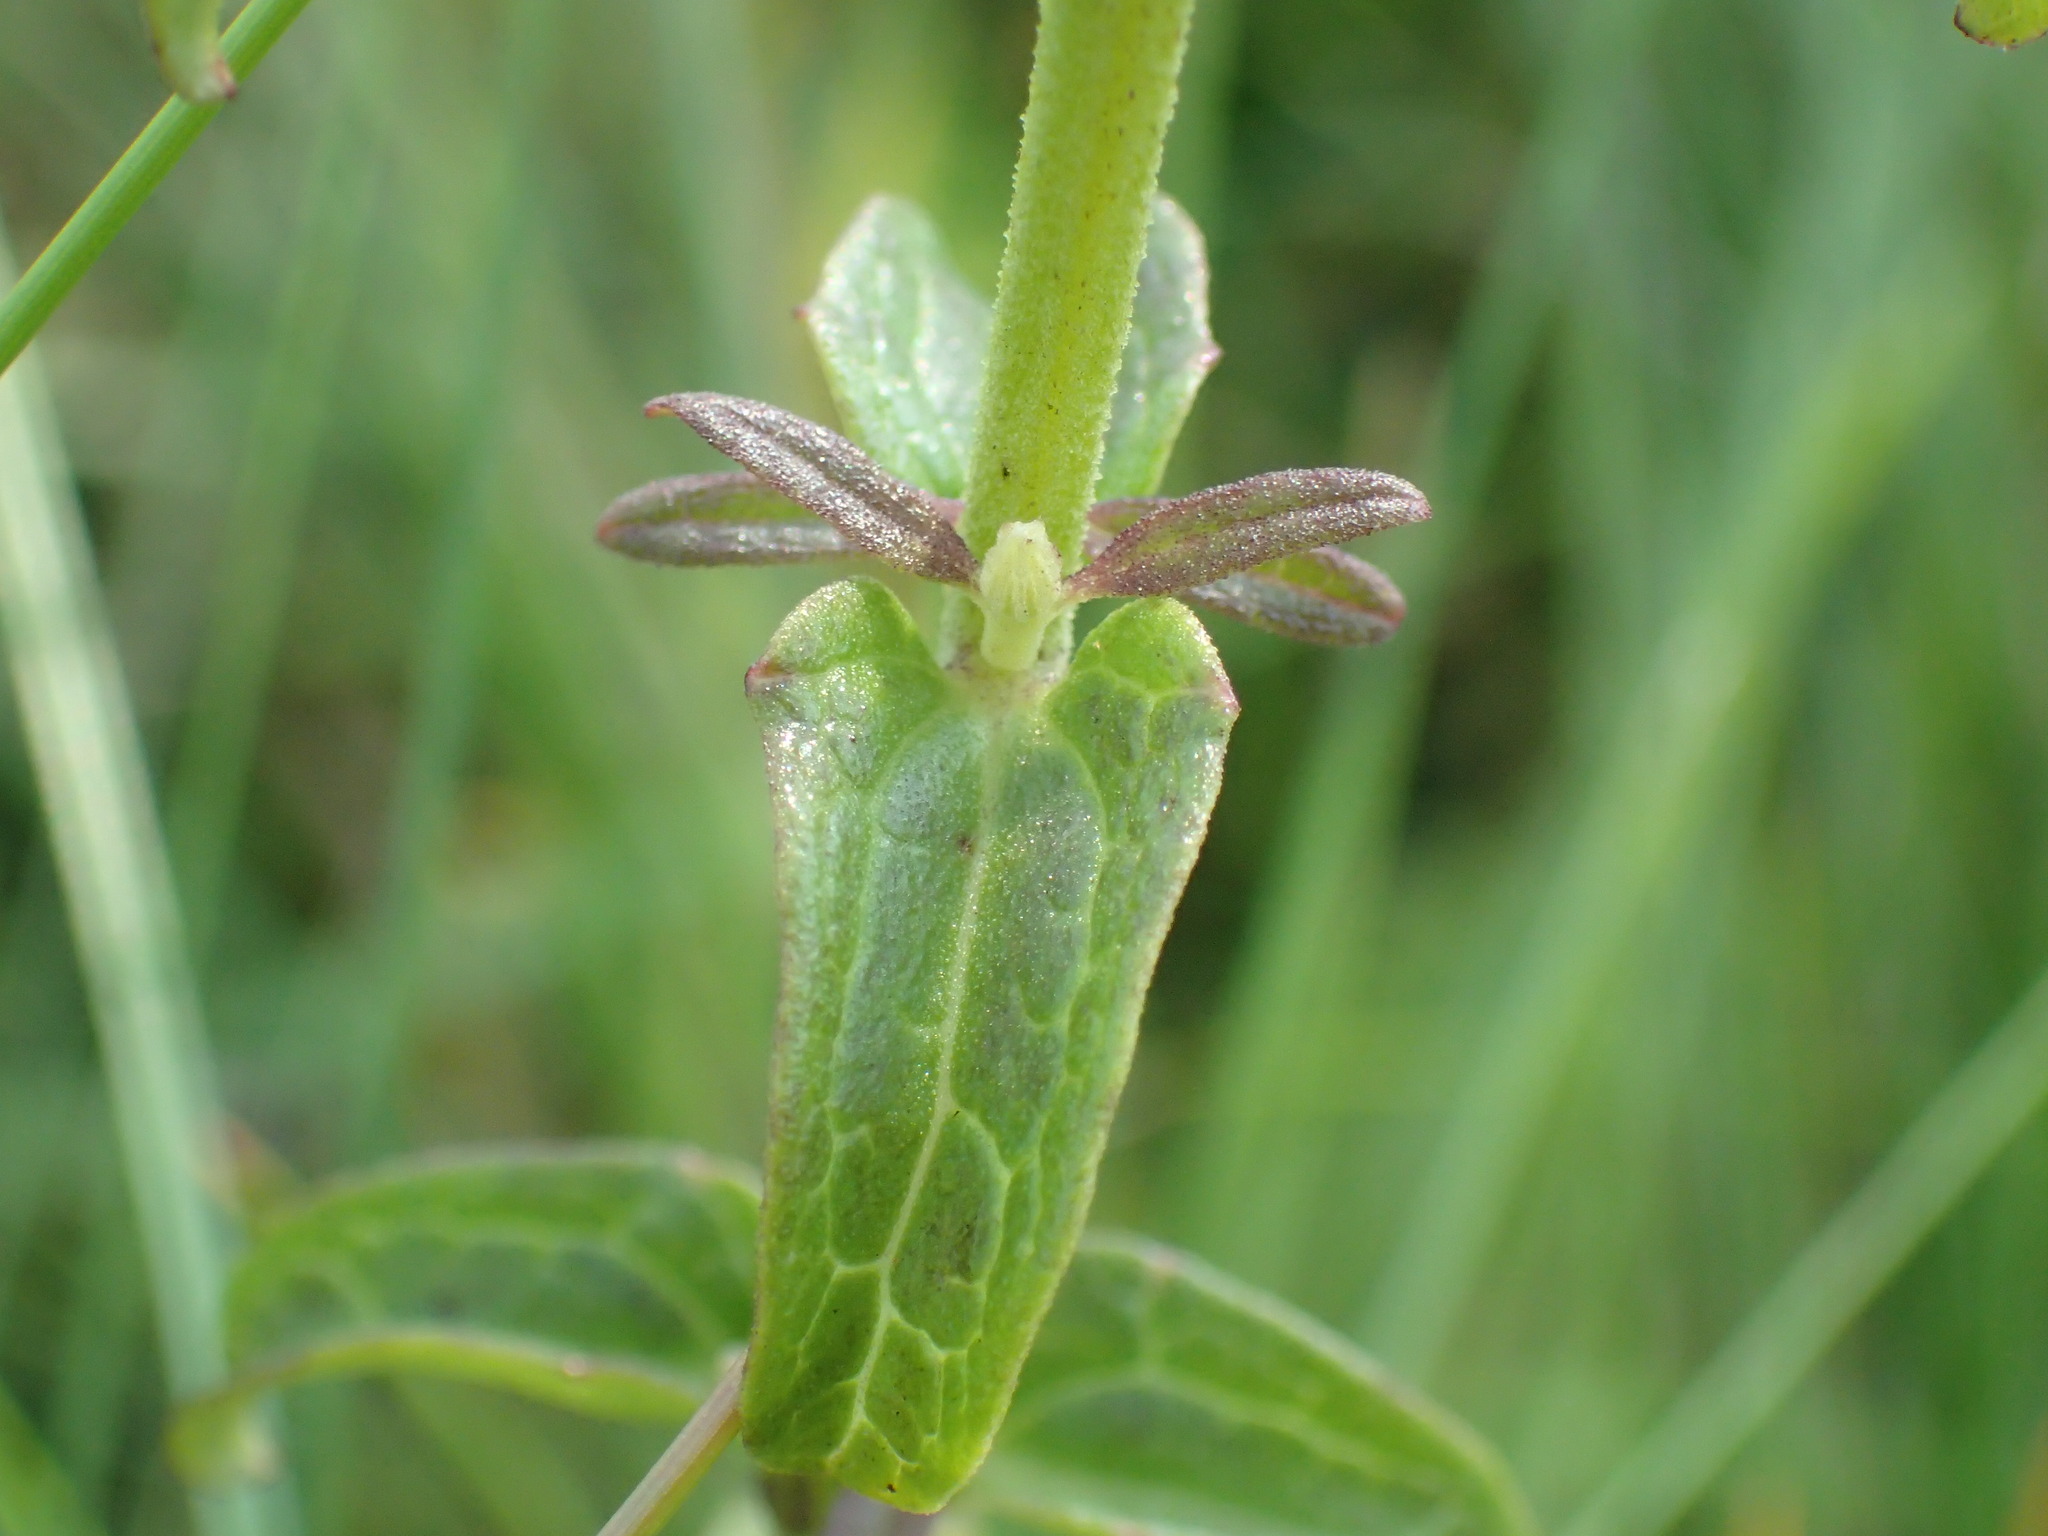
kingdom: Plantae
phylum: Tracheophyta
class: Magnoliopsida
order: Lamiales
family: Orobanchaceae
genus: Melasma
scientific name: Melasma scabrum
